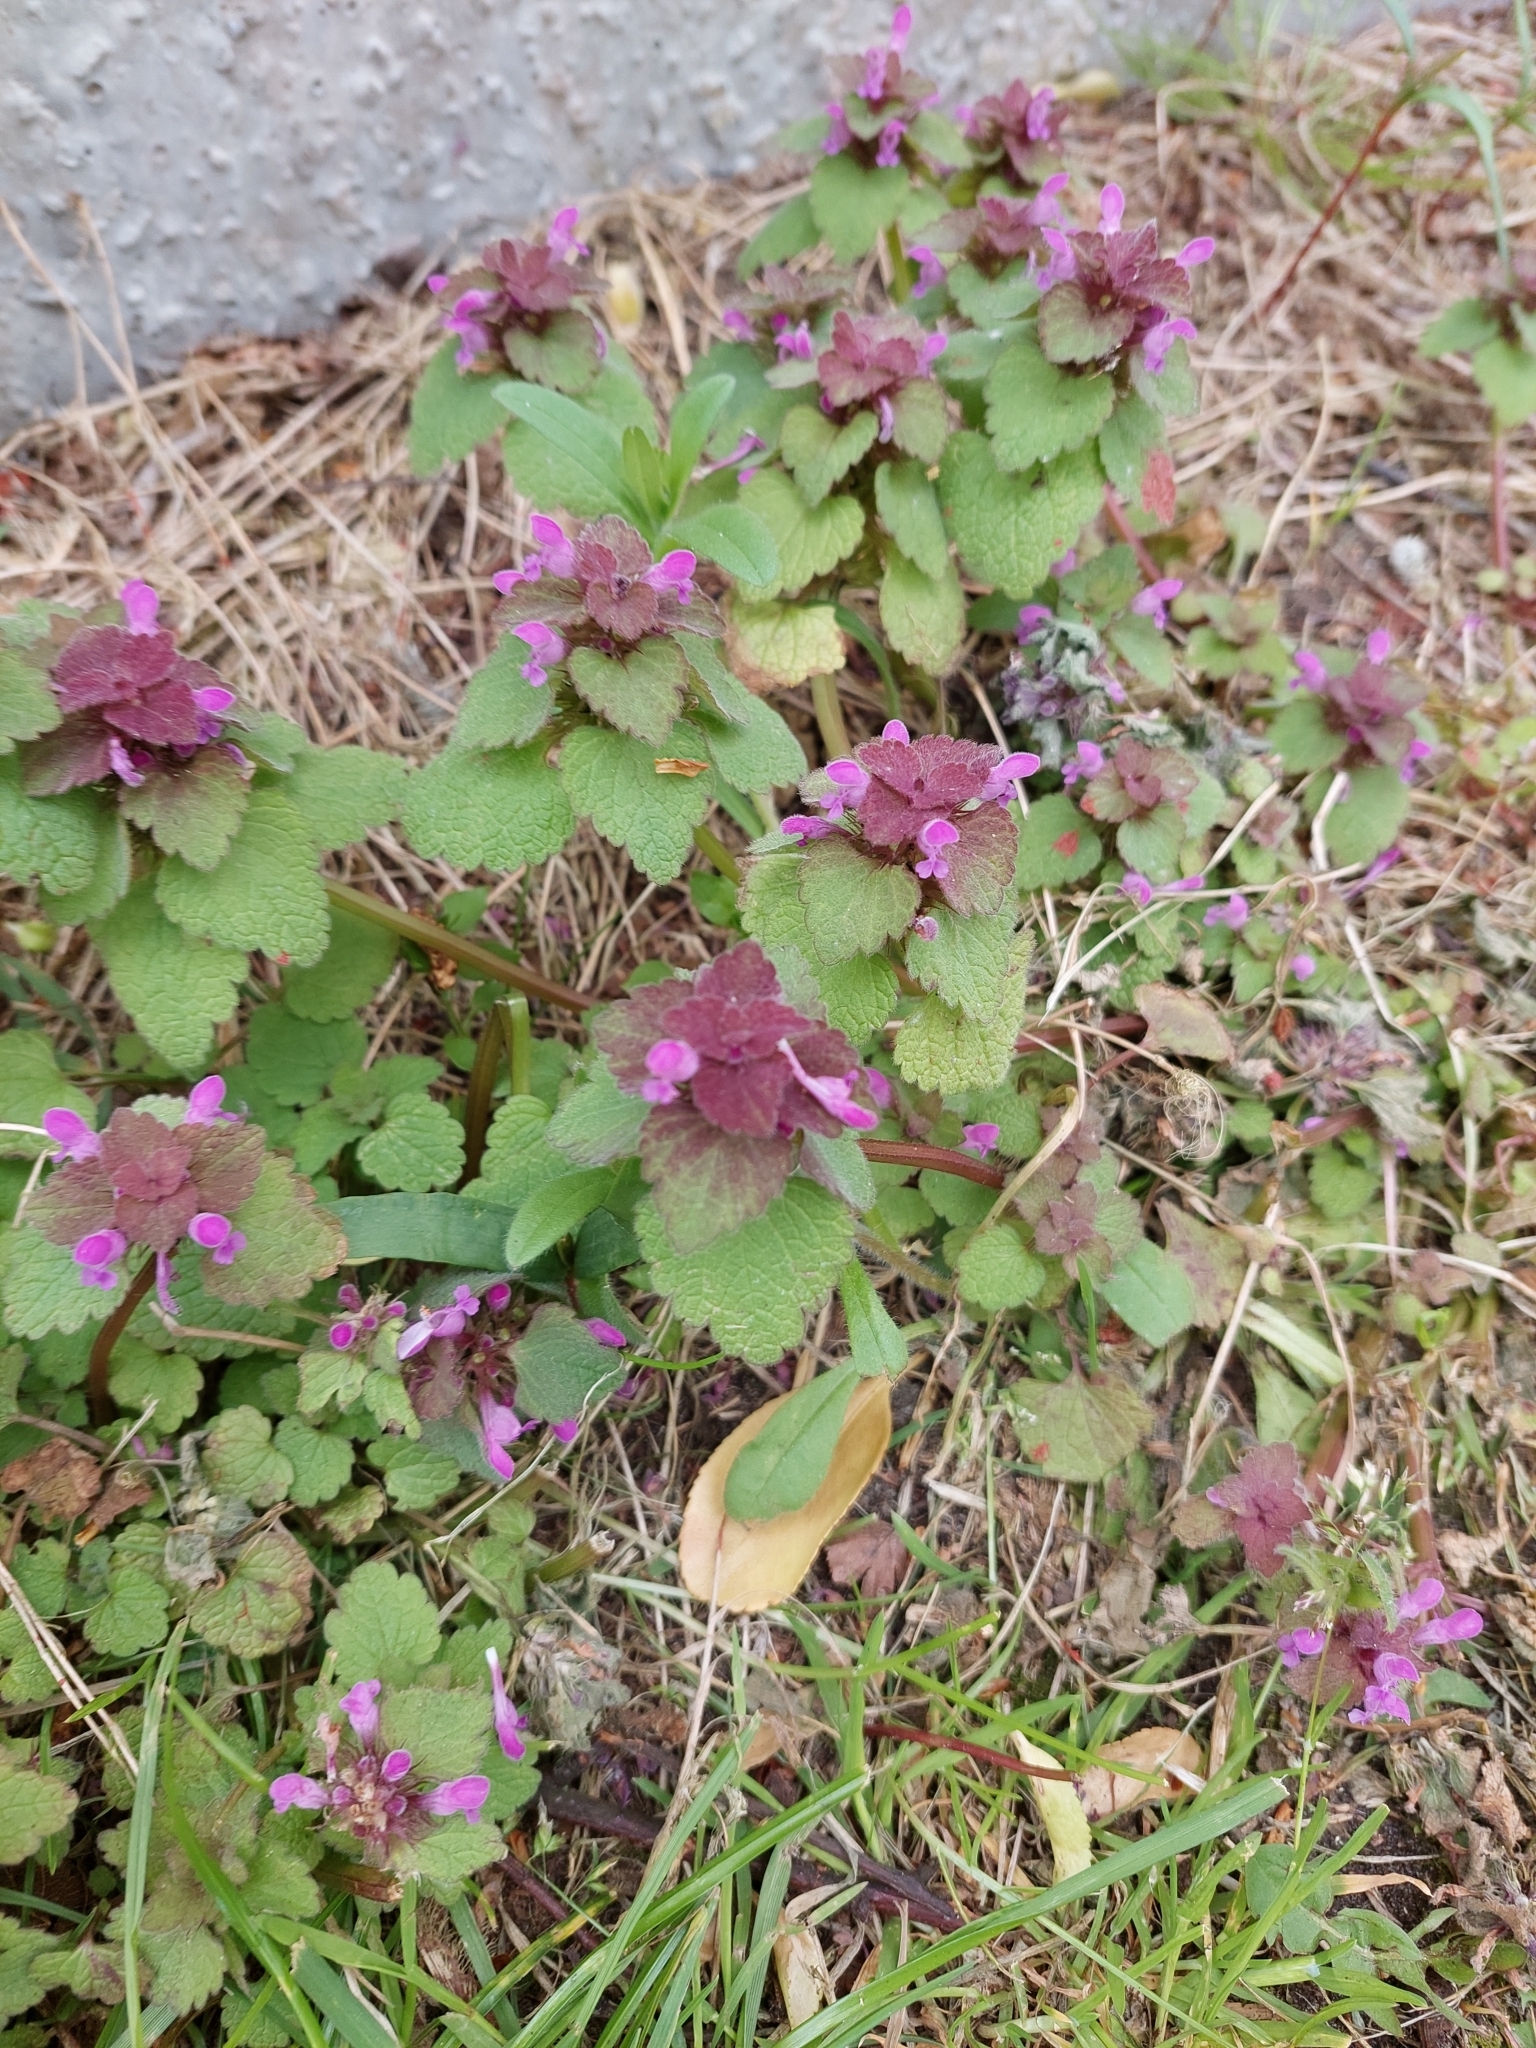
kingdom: Plantae
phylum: Tracheophyta
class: Magnoliopsida
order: Lamiales
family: Lamiaceae
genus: Lamium
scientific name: Lamium purpureum
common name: Red dead-nettle
